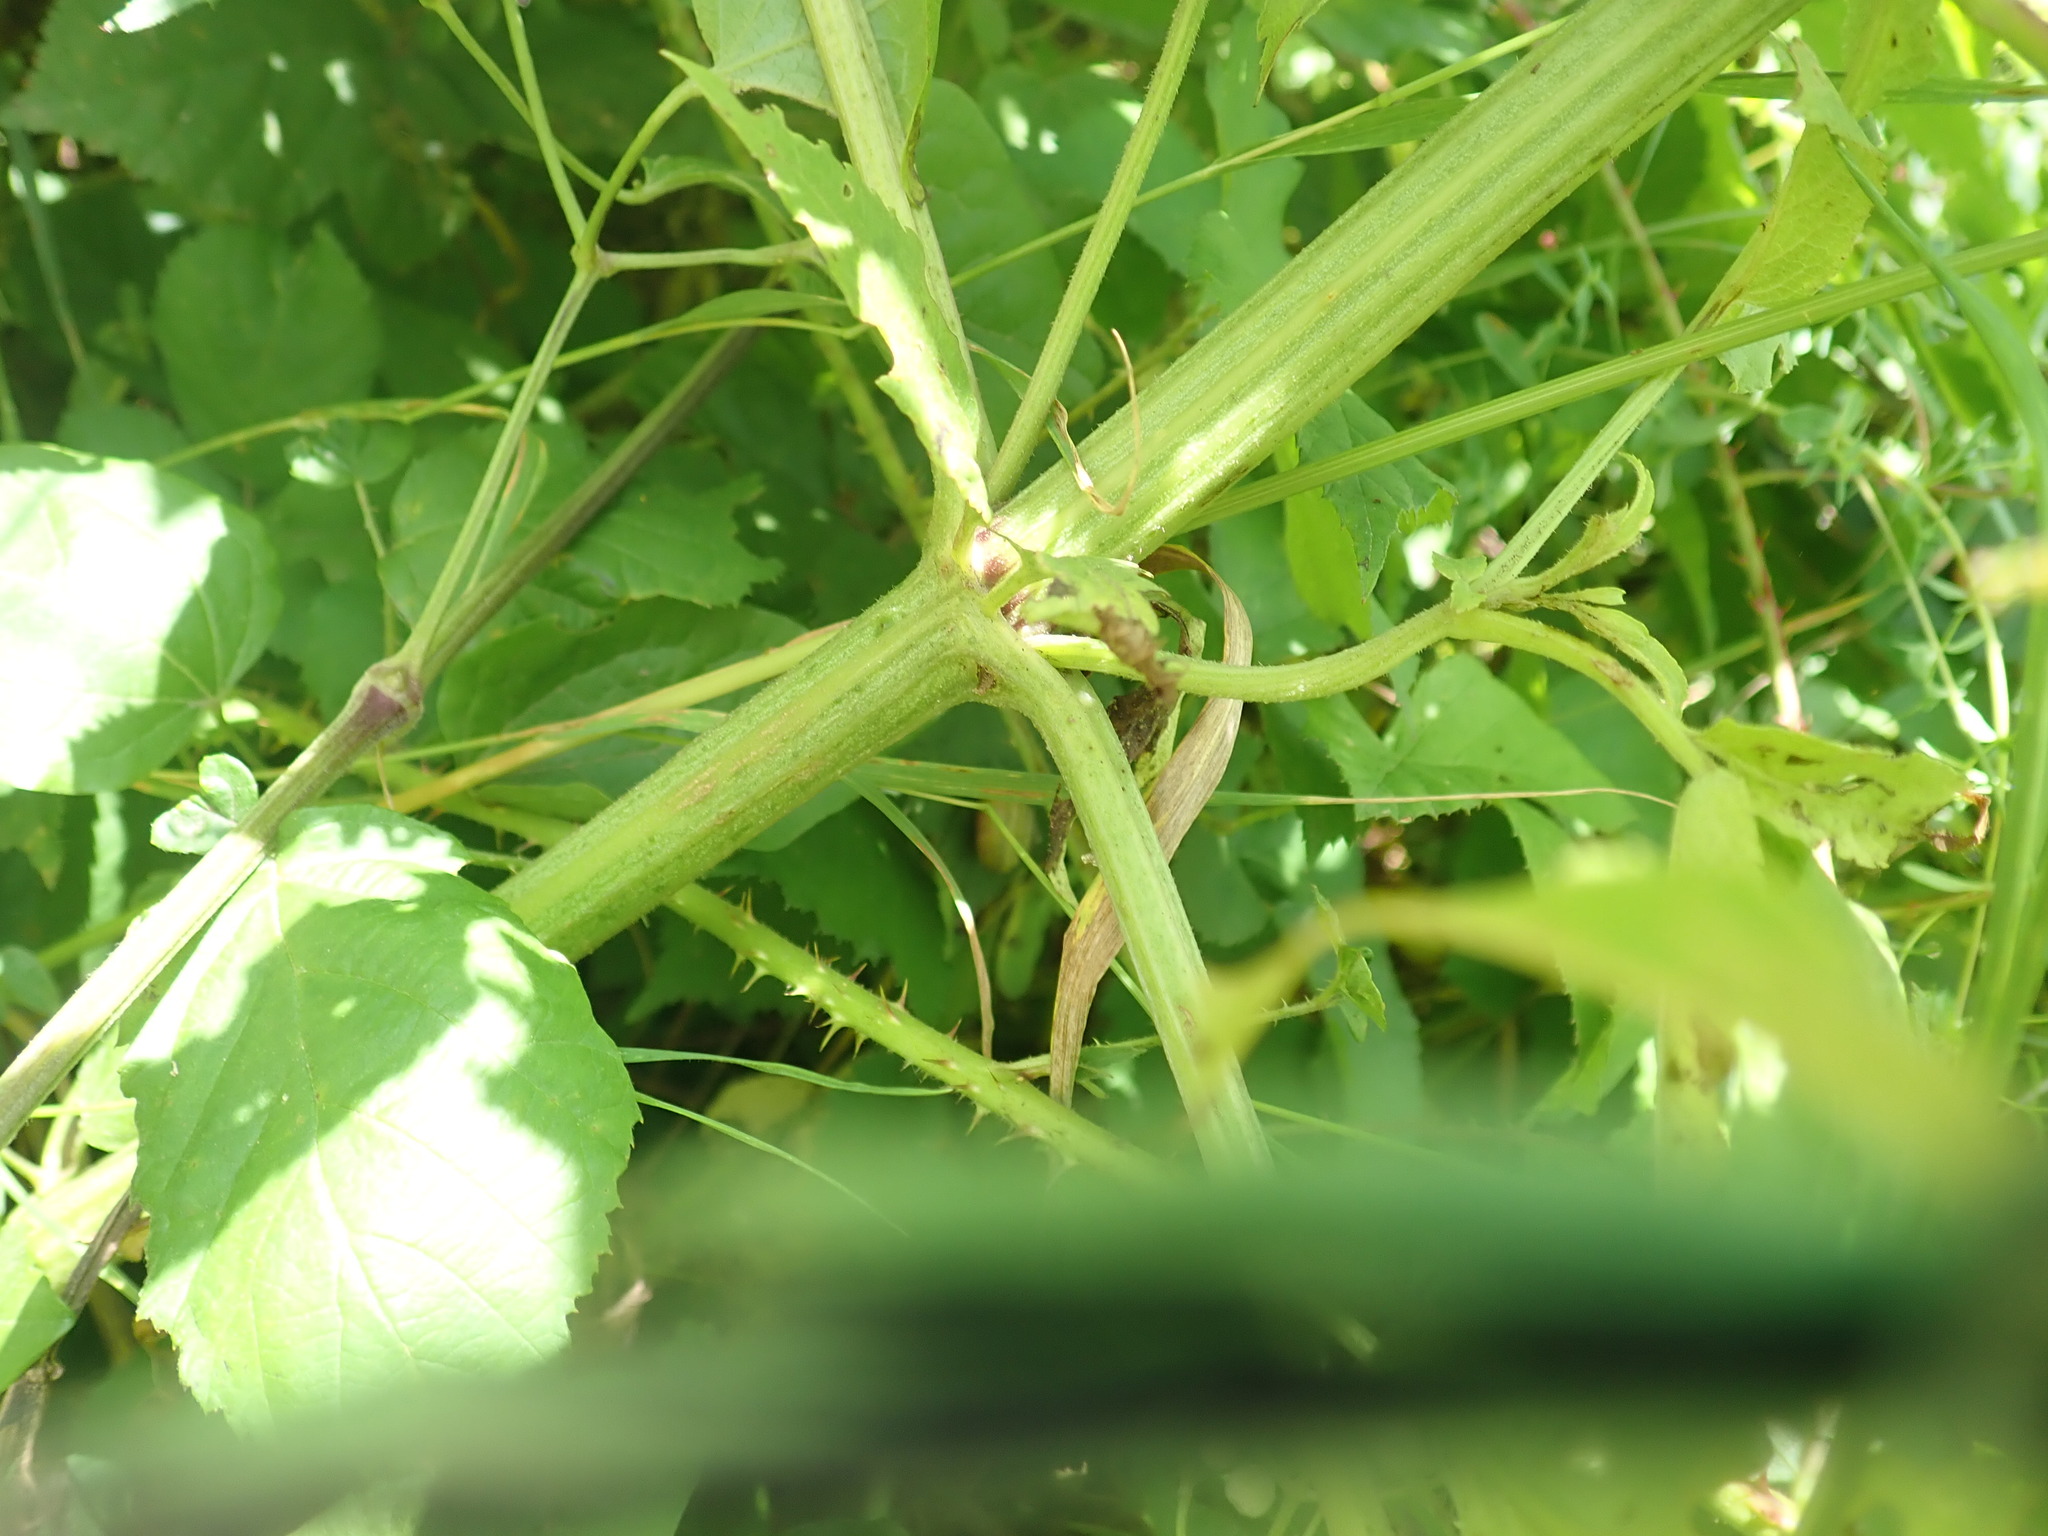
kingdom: Plantae
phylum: Tracheophyta
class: Magnoliopsida
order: Dipsacales
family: Viburnaceae
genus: Sambucus
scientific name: Sambucus ebulus
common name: Dwarf elder
